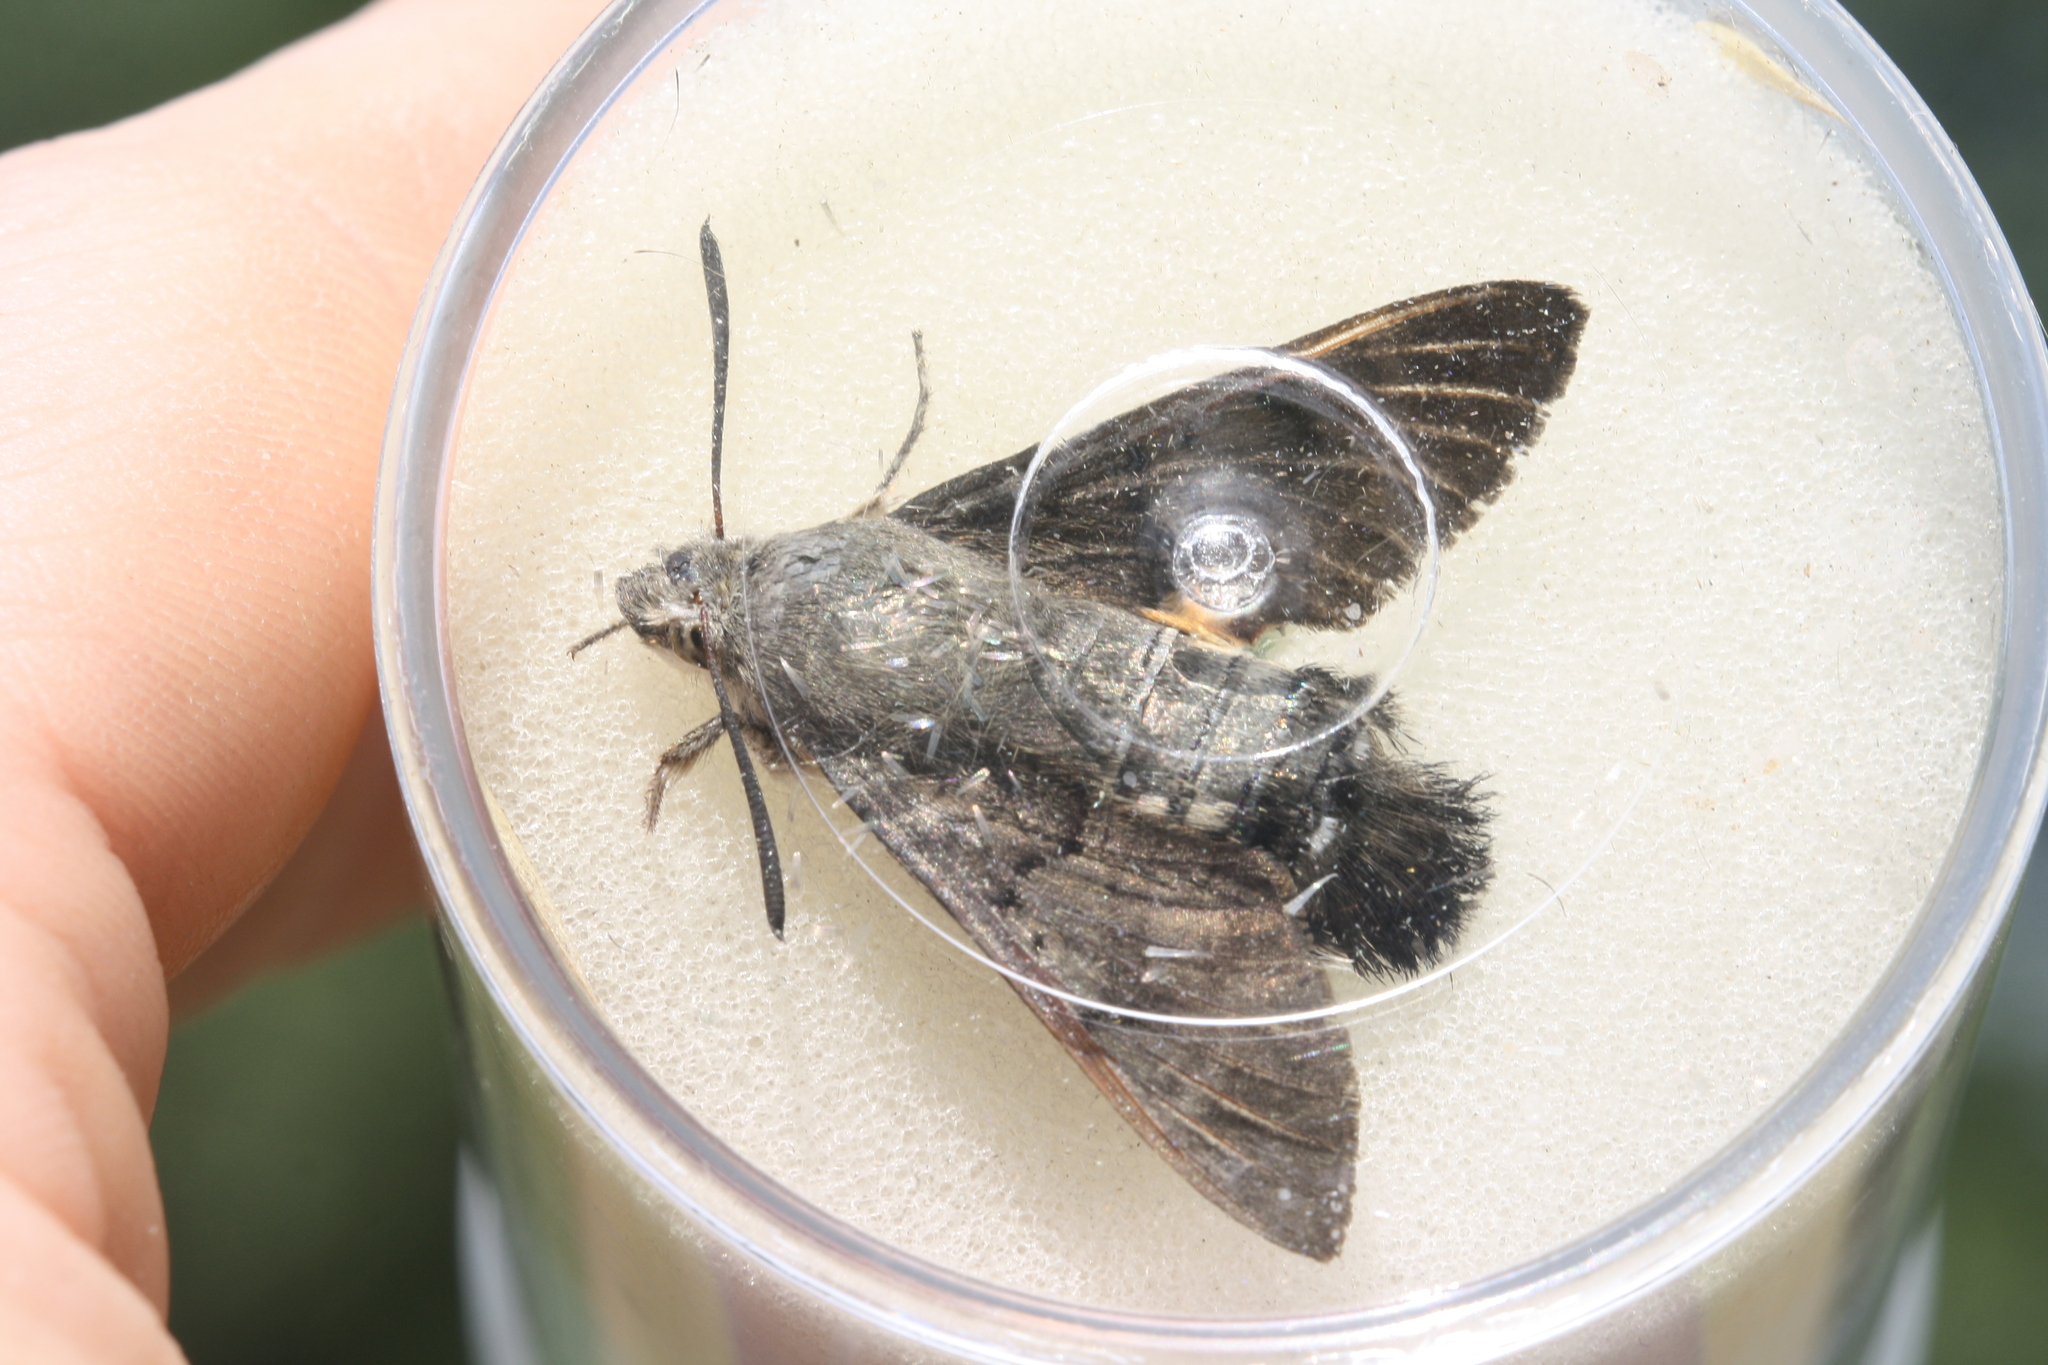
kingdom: Animalia
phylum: Arthropoda
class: Insecta
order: Lepidoptera
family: Sphingidae
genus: Macroglossum
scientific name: Macroglossum stellatarum
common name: Humming-bird hawk-moth
